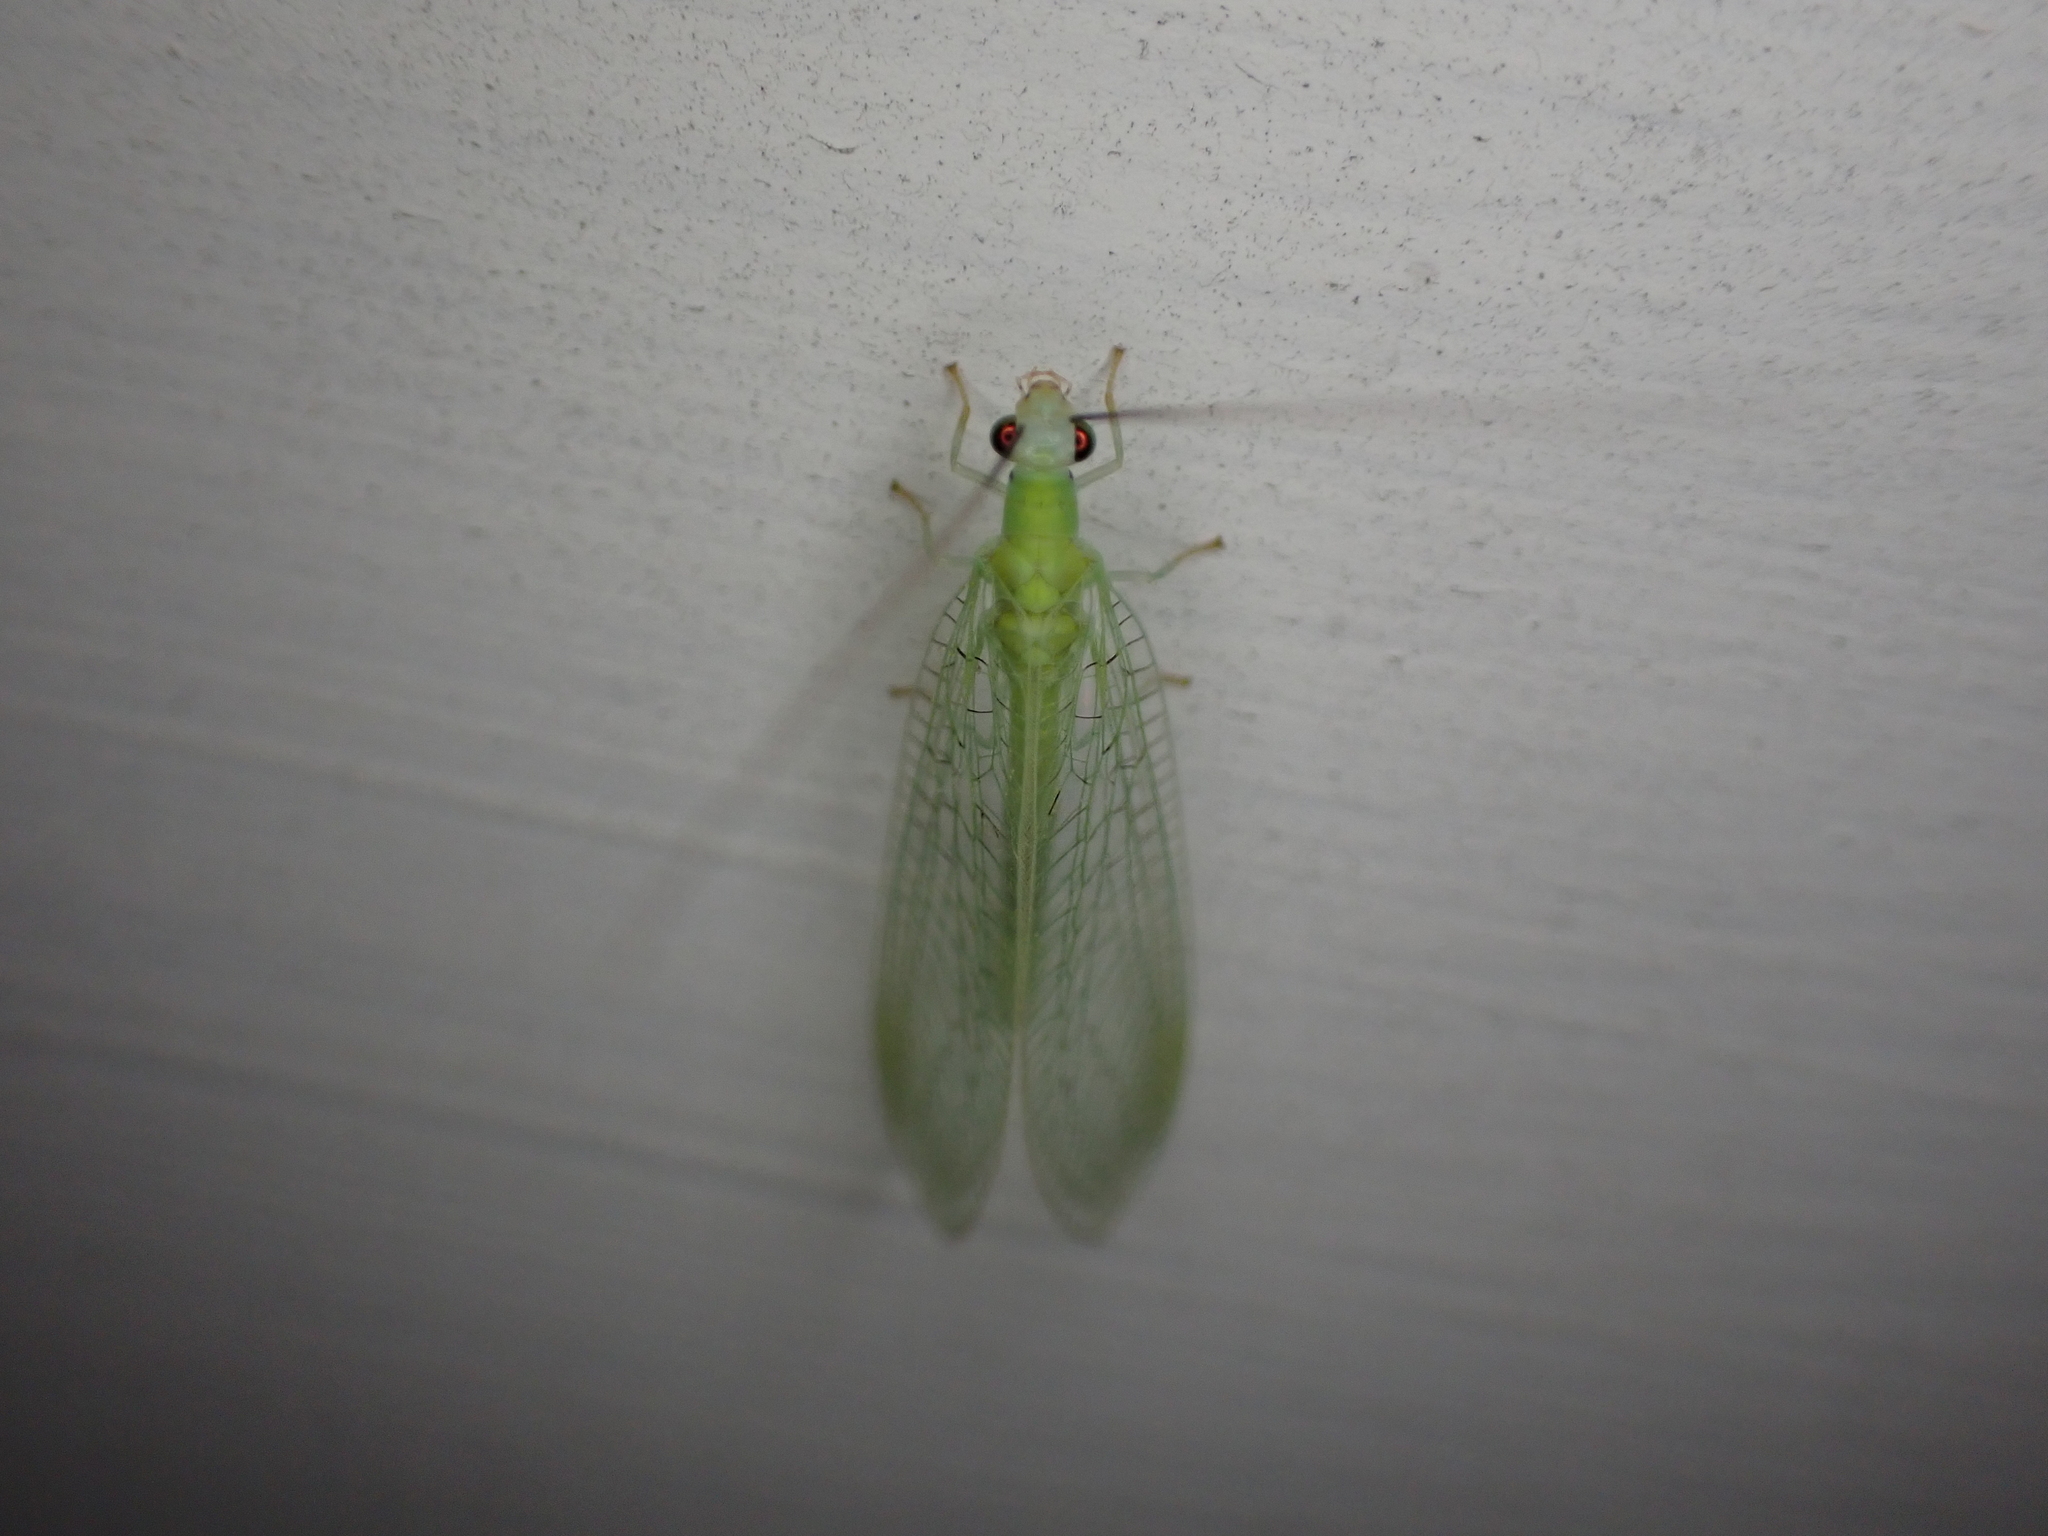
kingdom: Animalia
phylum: Arthropoda
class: Insecta
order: Neuroptera
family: Chrysopidae
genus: Chrysopa
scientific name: Chrysopa nigricornis
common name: Black-horned green lacewing
